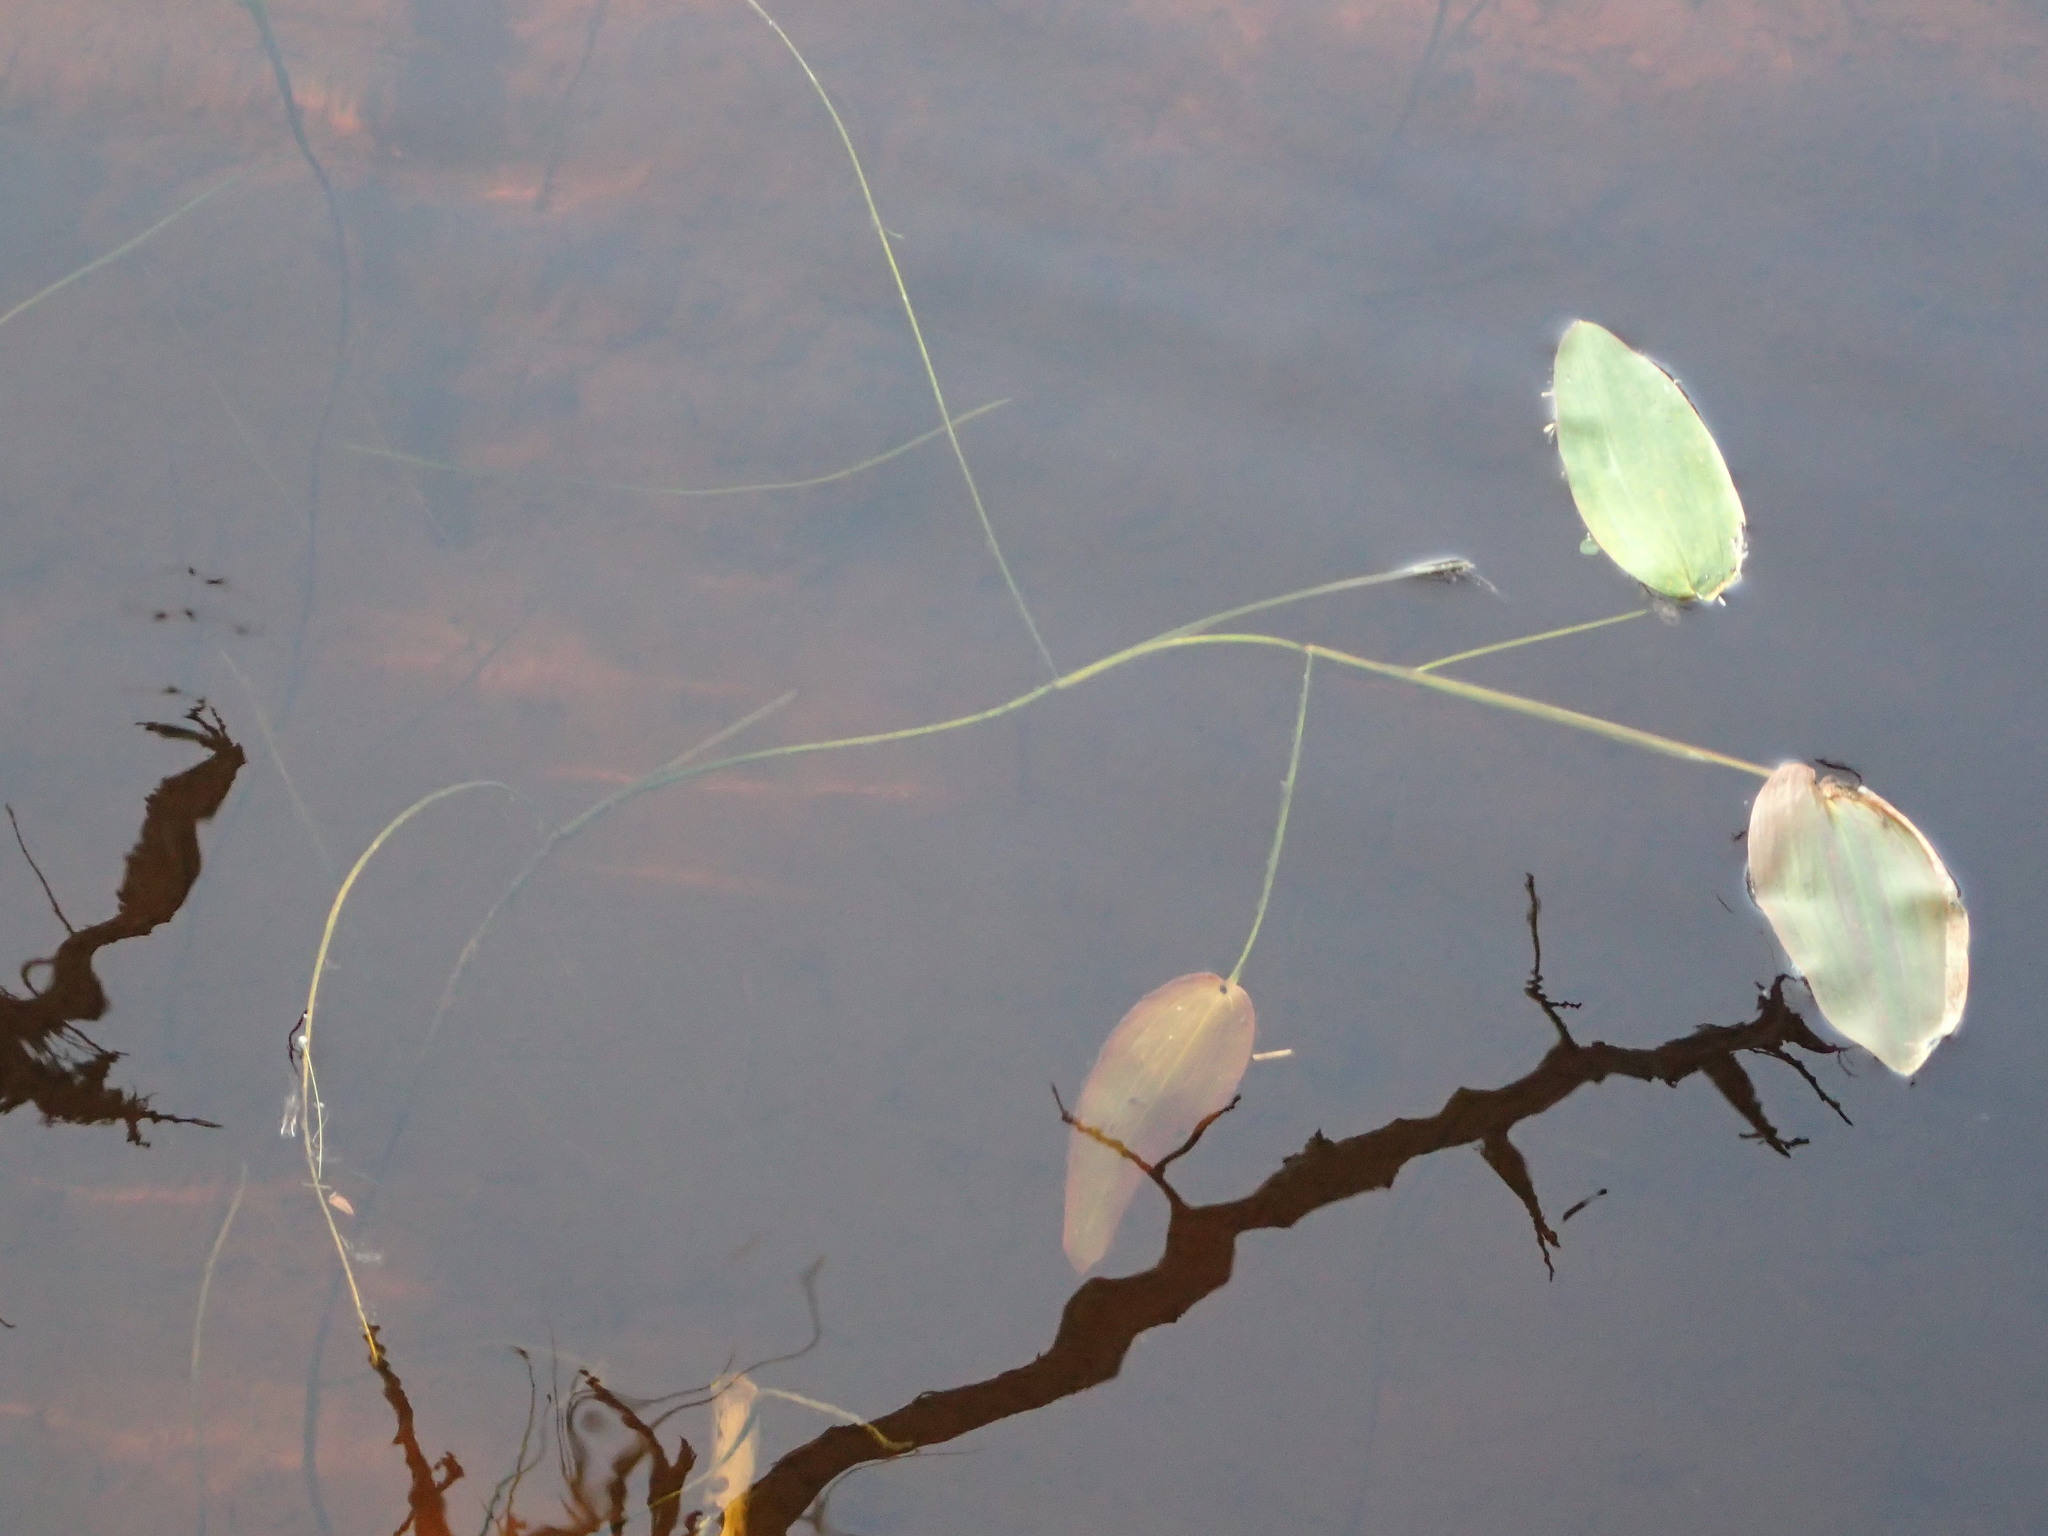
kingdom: Plantae
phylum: Tracheophyta
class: Liliopsida
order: Alismatales
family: Potamogetonaceae
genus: Potamogeton
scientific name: Potamogeton natans
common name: Broad-leaved pondweed
